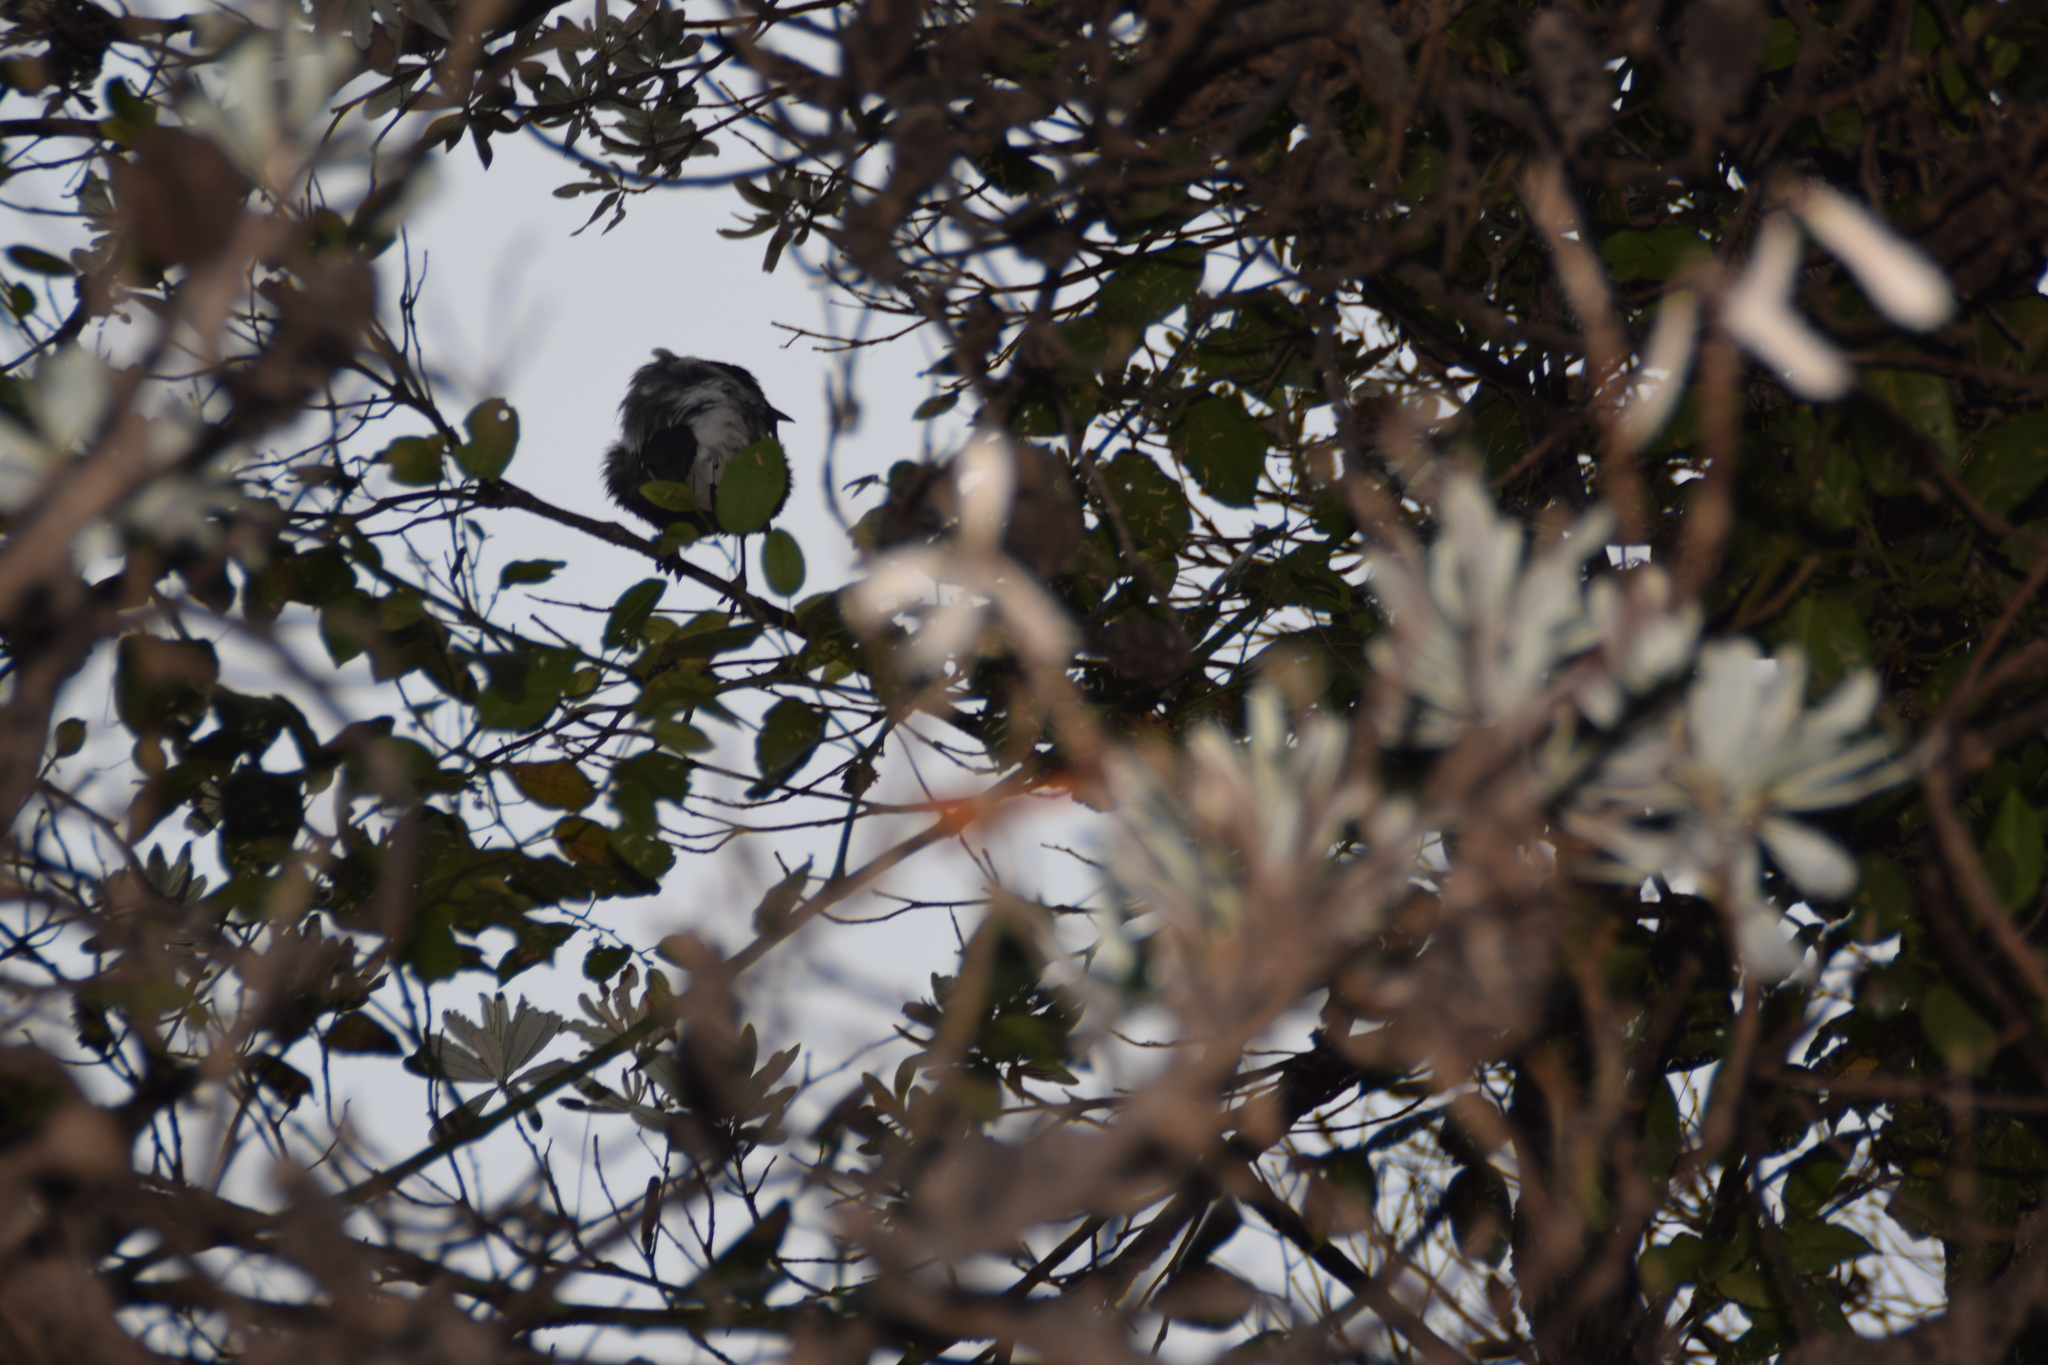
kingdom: Animalia
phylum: Chordata
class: Aves
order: Passeriformes
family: Cracticidae
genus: Gymnorhina
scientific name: Gymnorhina tibicen
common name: Australian magpie
